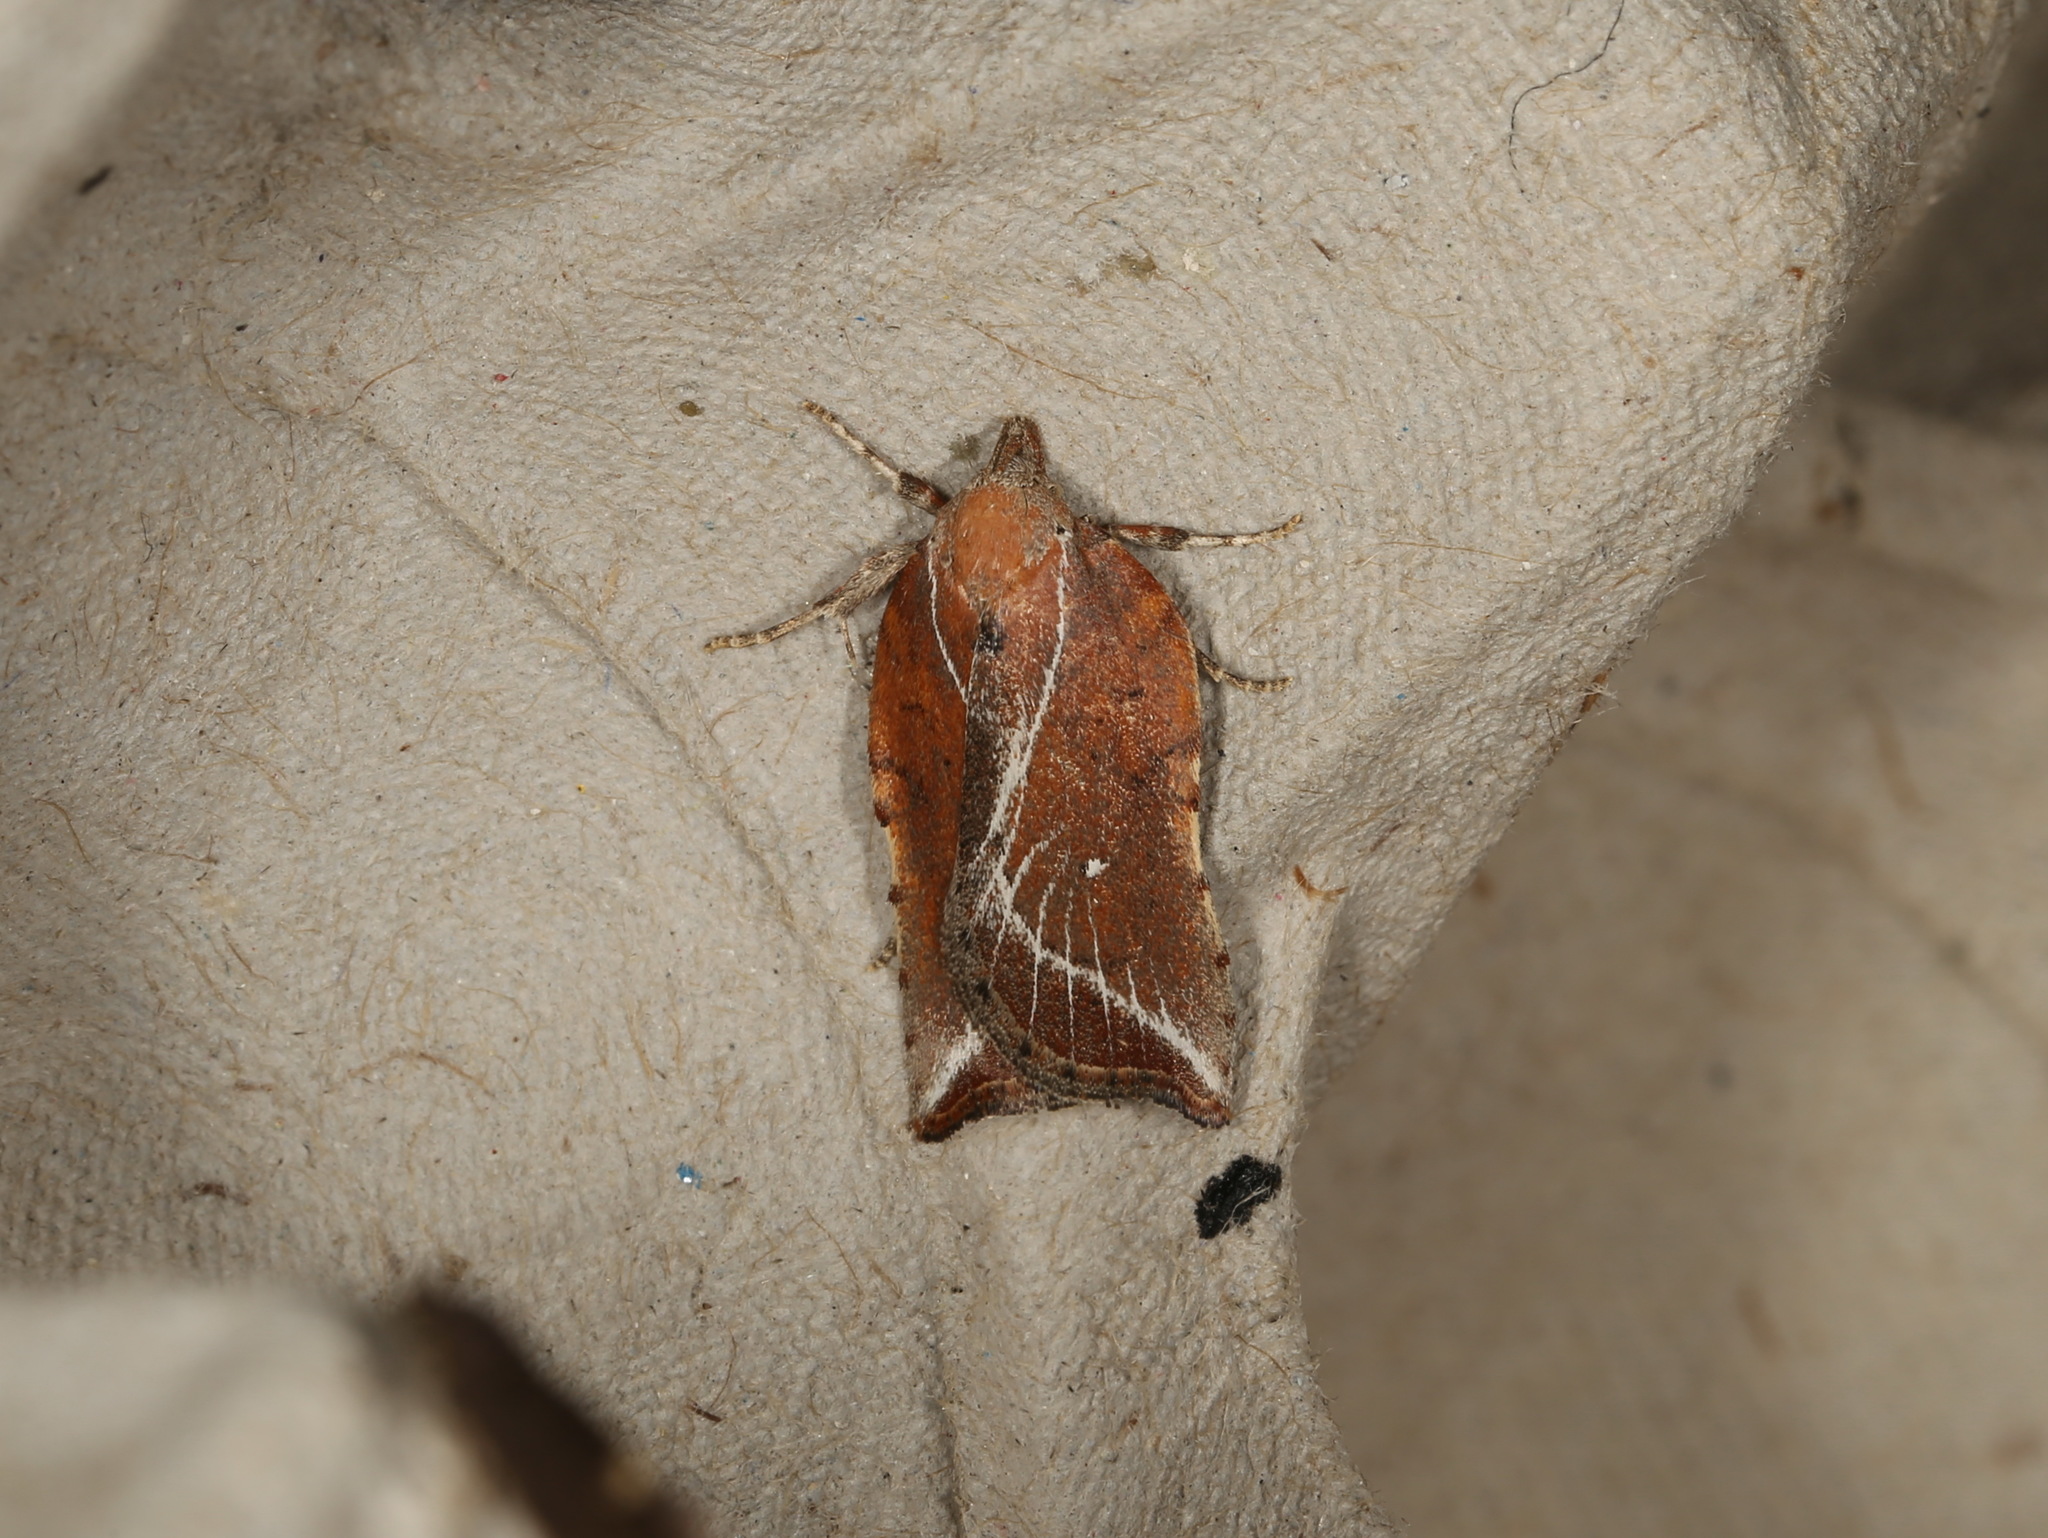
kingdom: Animalia
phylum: Arthropoda
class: Insecta
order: Lepidoptera
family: Oecophoridae
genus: Arachnographa
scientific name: Arachnographa micrastrella
